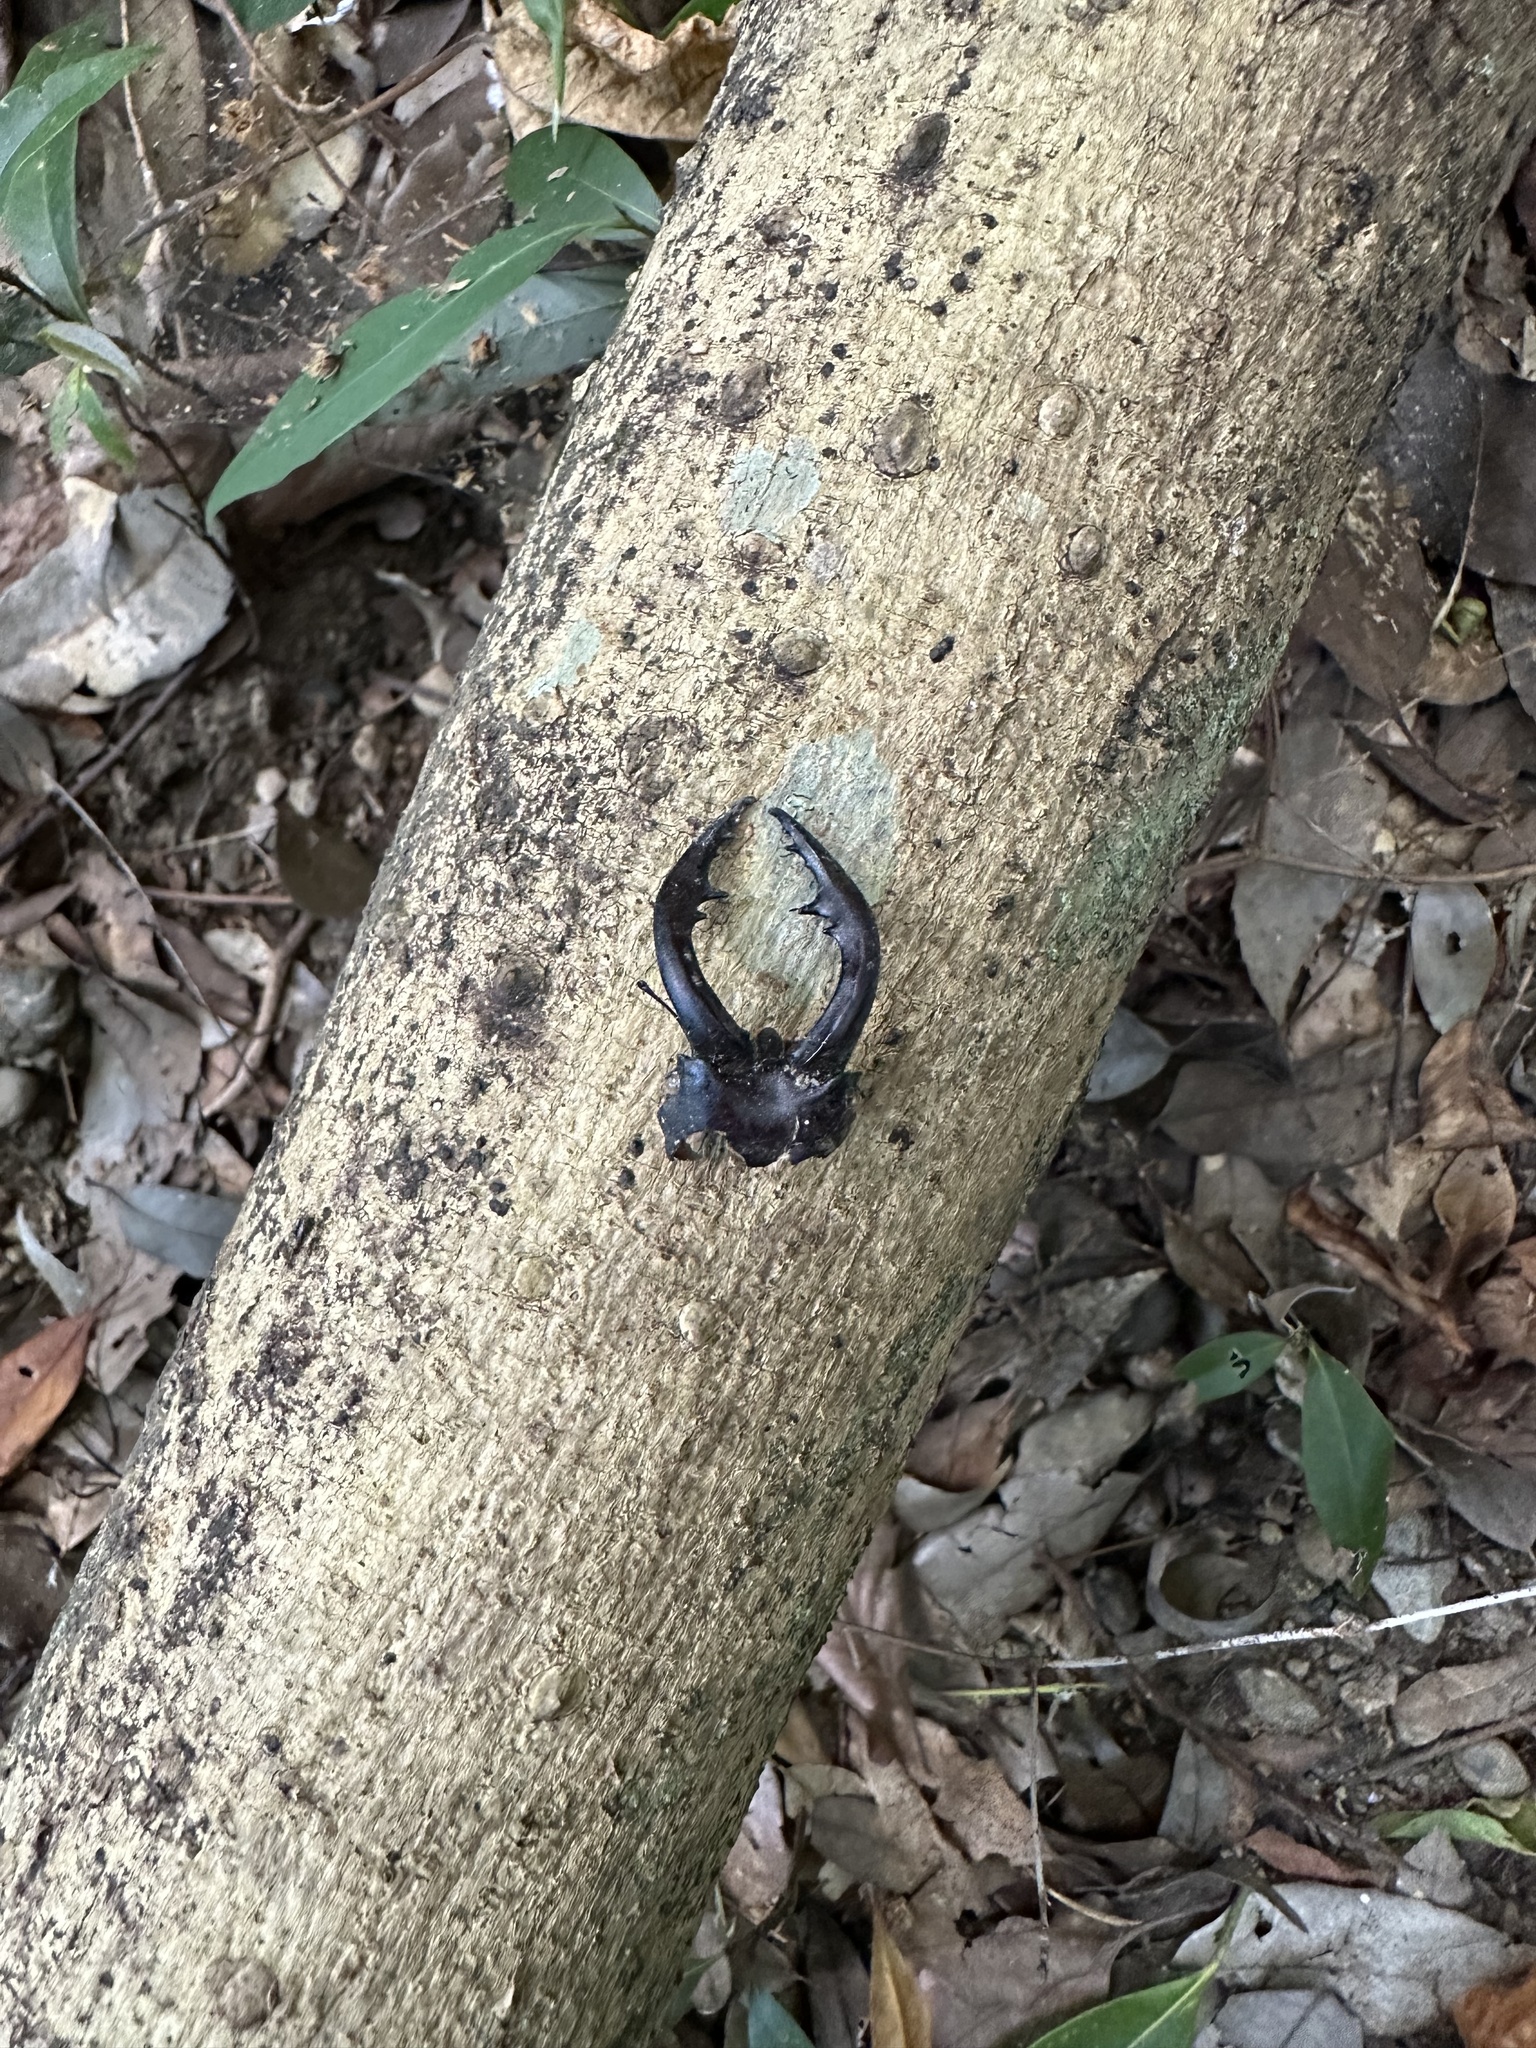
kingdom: Animalia
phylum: Arthropoda
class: Insecta
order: Coleoptera
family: Lucanidae
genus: Prosopocoilus
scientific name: Prosopocoilus inclinatus
